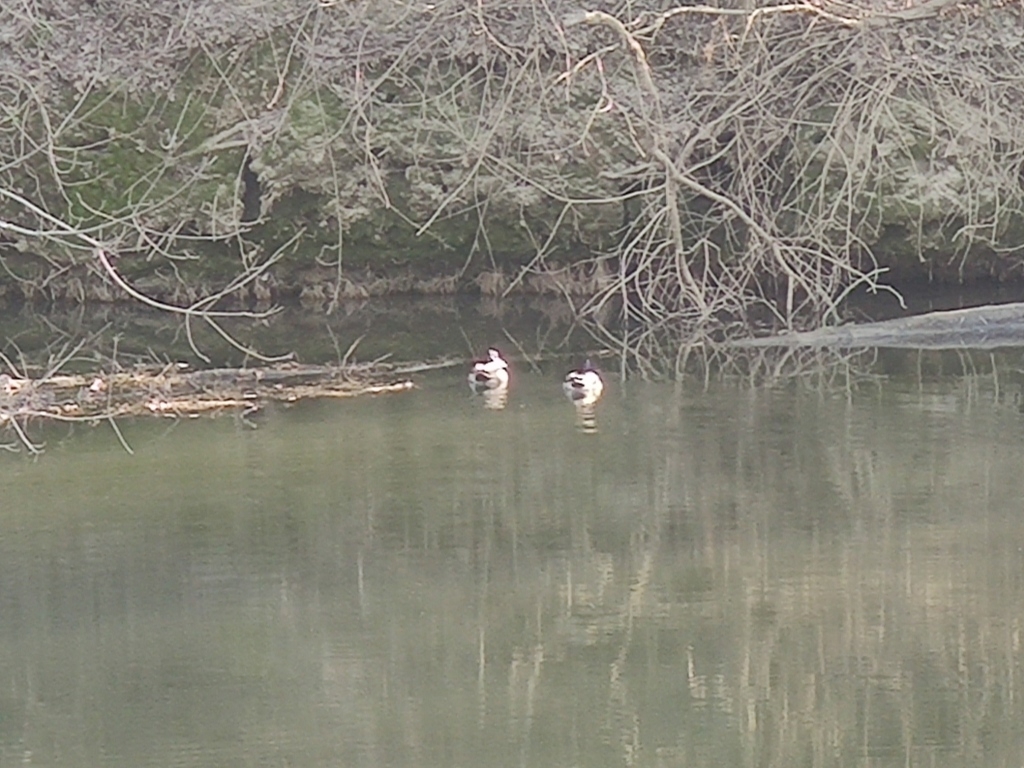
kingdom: Animalia
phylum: Chordata
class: Aves
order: Anseriformes
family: Anatidae
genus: Anas
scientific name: Anas platyrhynchos
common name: Mallard
